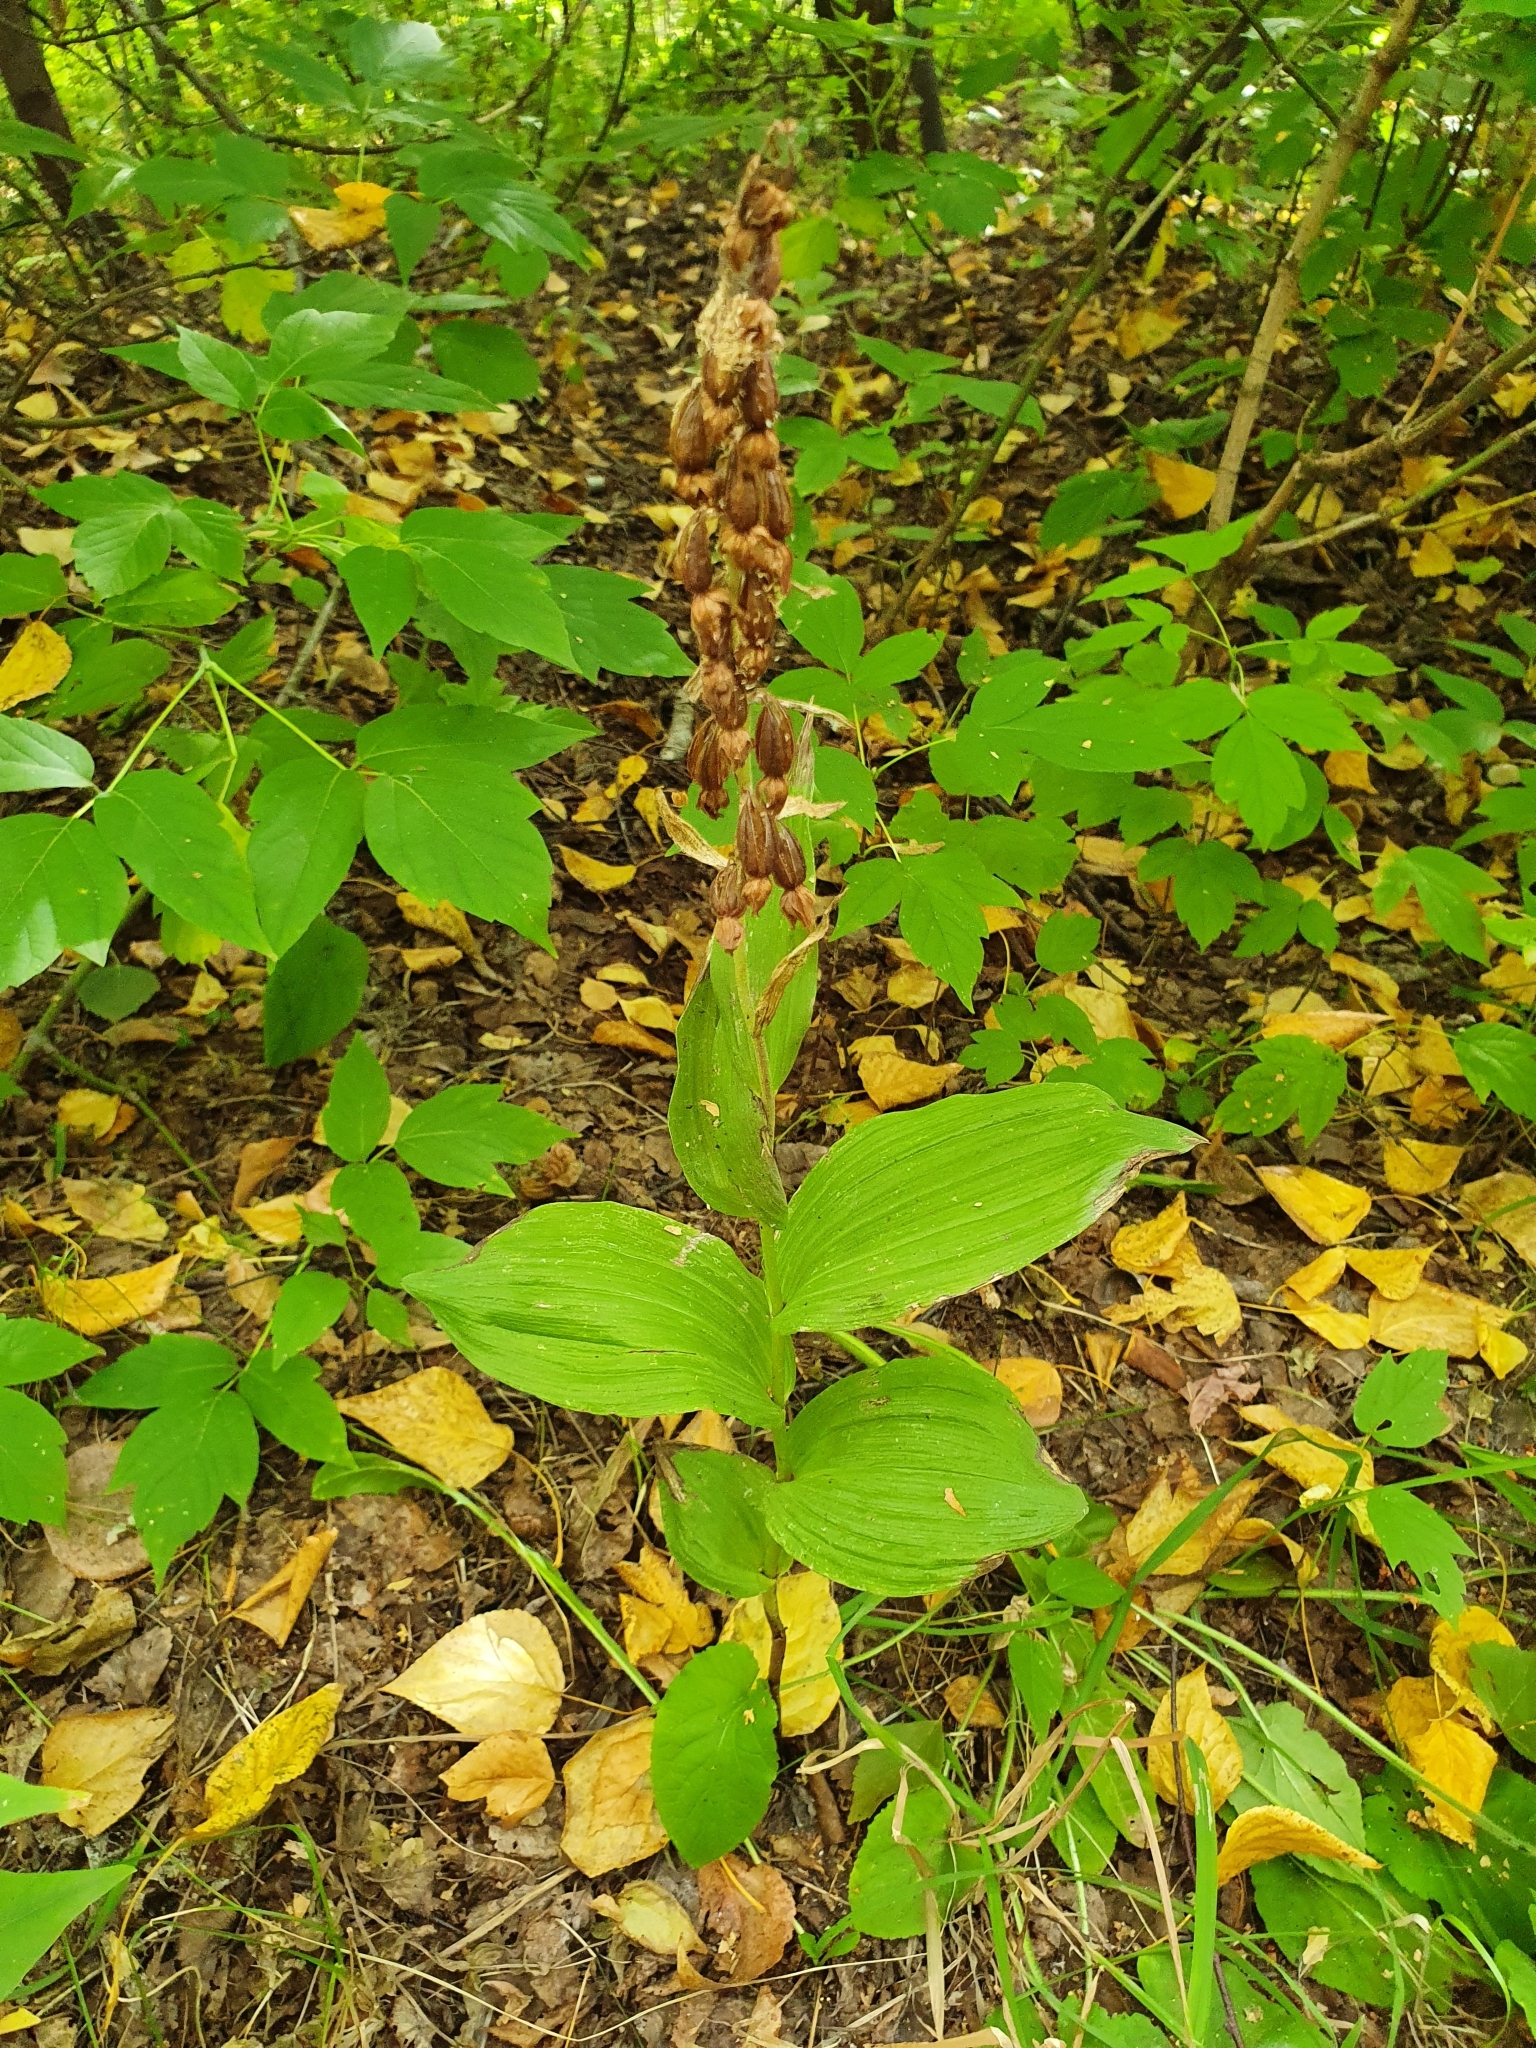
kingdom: Plantae
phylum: Tracheophyta
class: Liliopsida
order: Asparagales
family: Orchidaceae
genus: Epipactis
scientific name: Epipactis helleborine
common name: Broad-leaved helleborine
